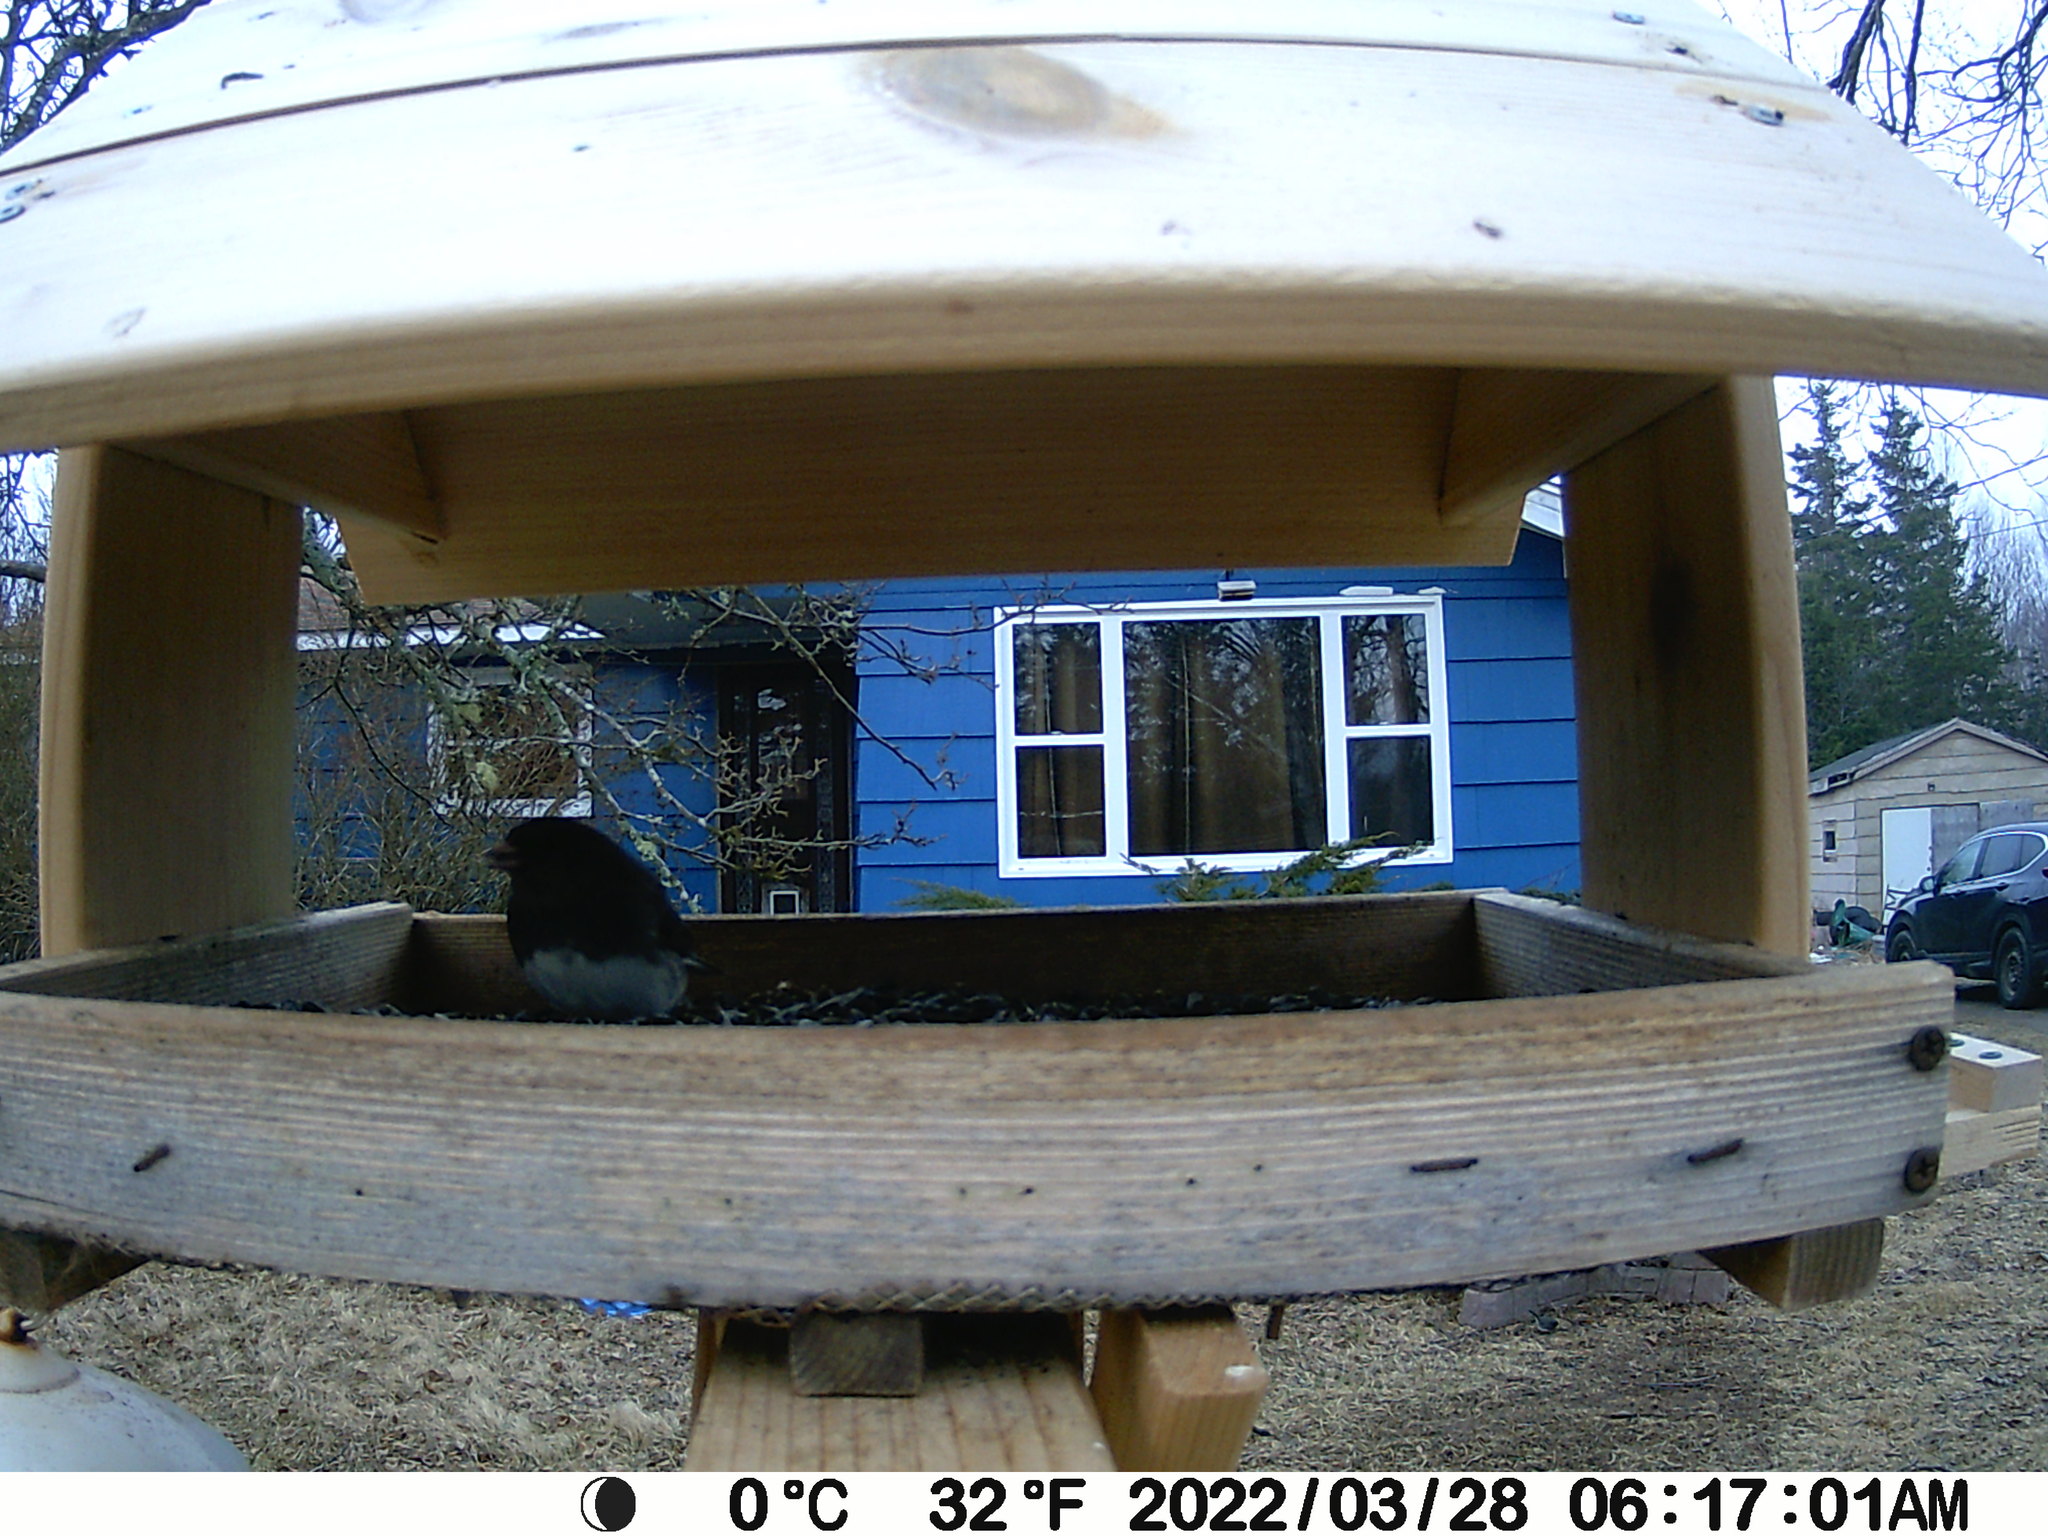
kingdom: Animalia
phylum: Chordata
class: Aves
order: Passeriformes
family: Passerellidae
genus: Junco
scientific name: Junco hyemalis
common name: Dark-eyed junco
